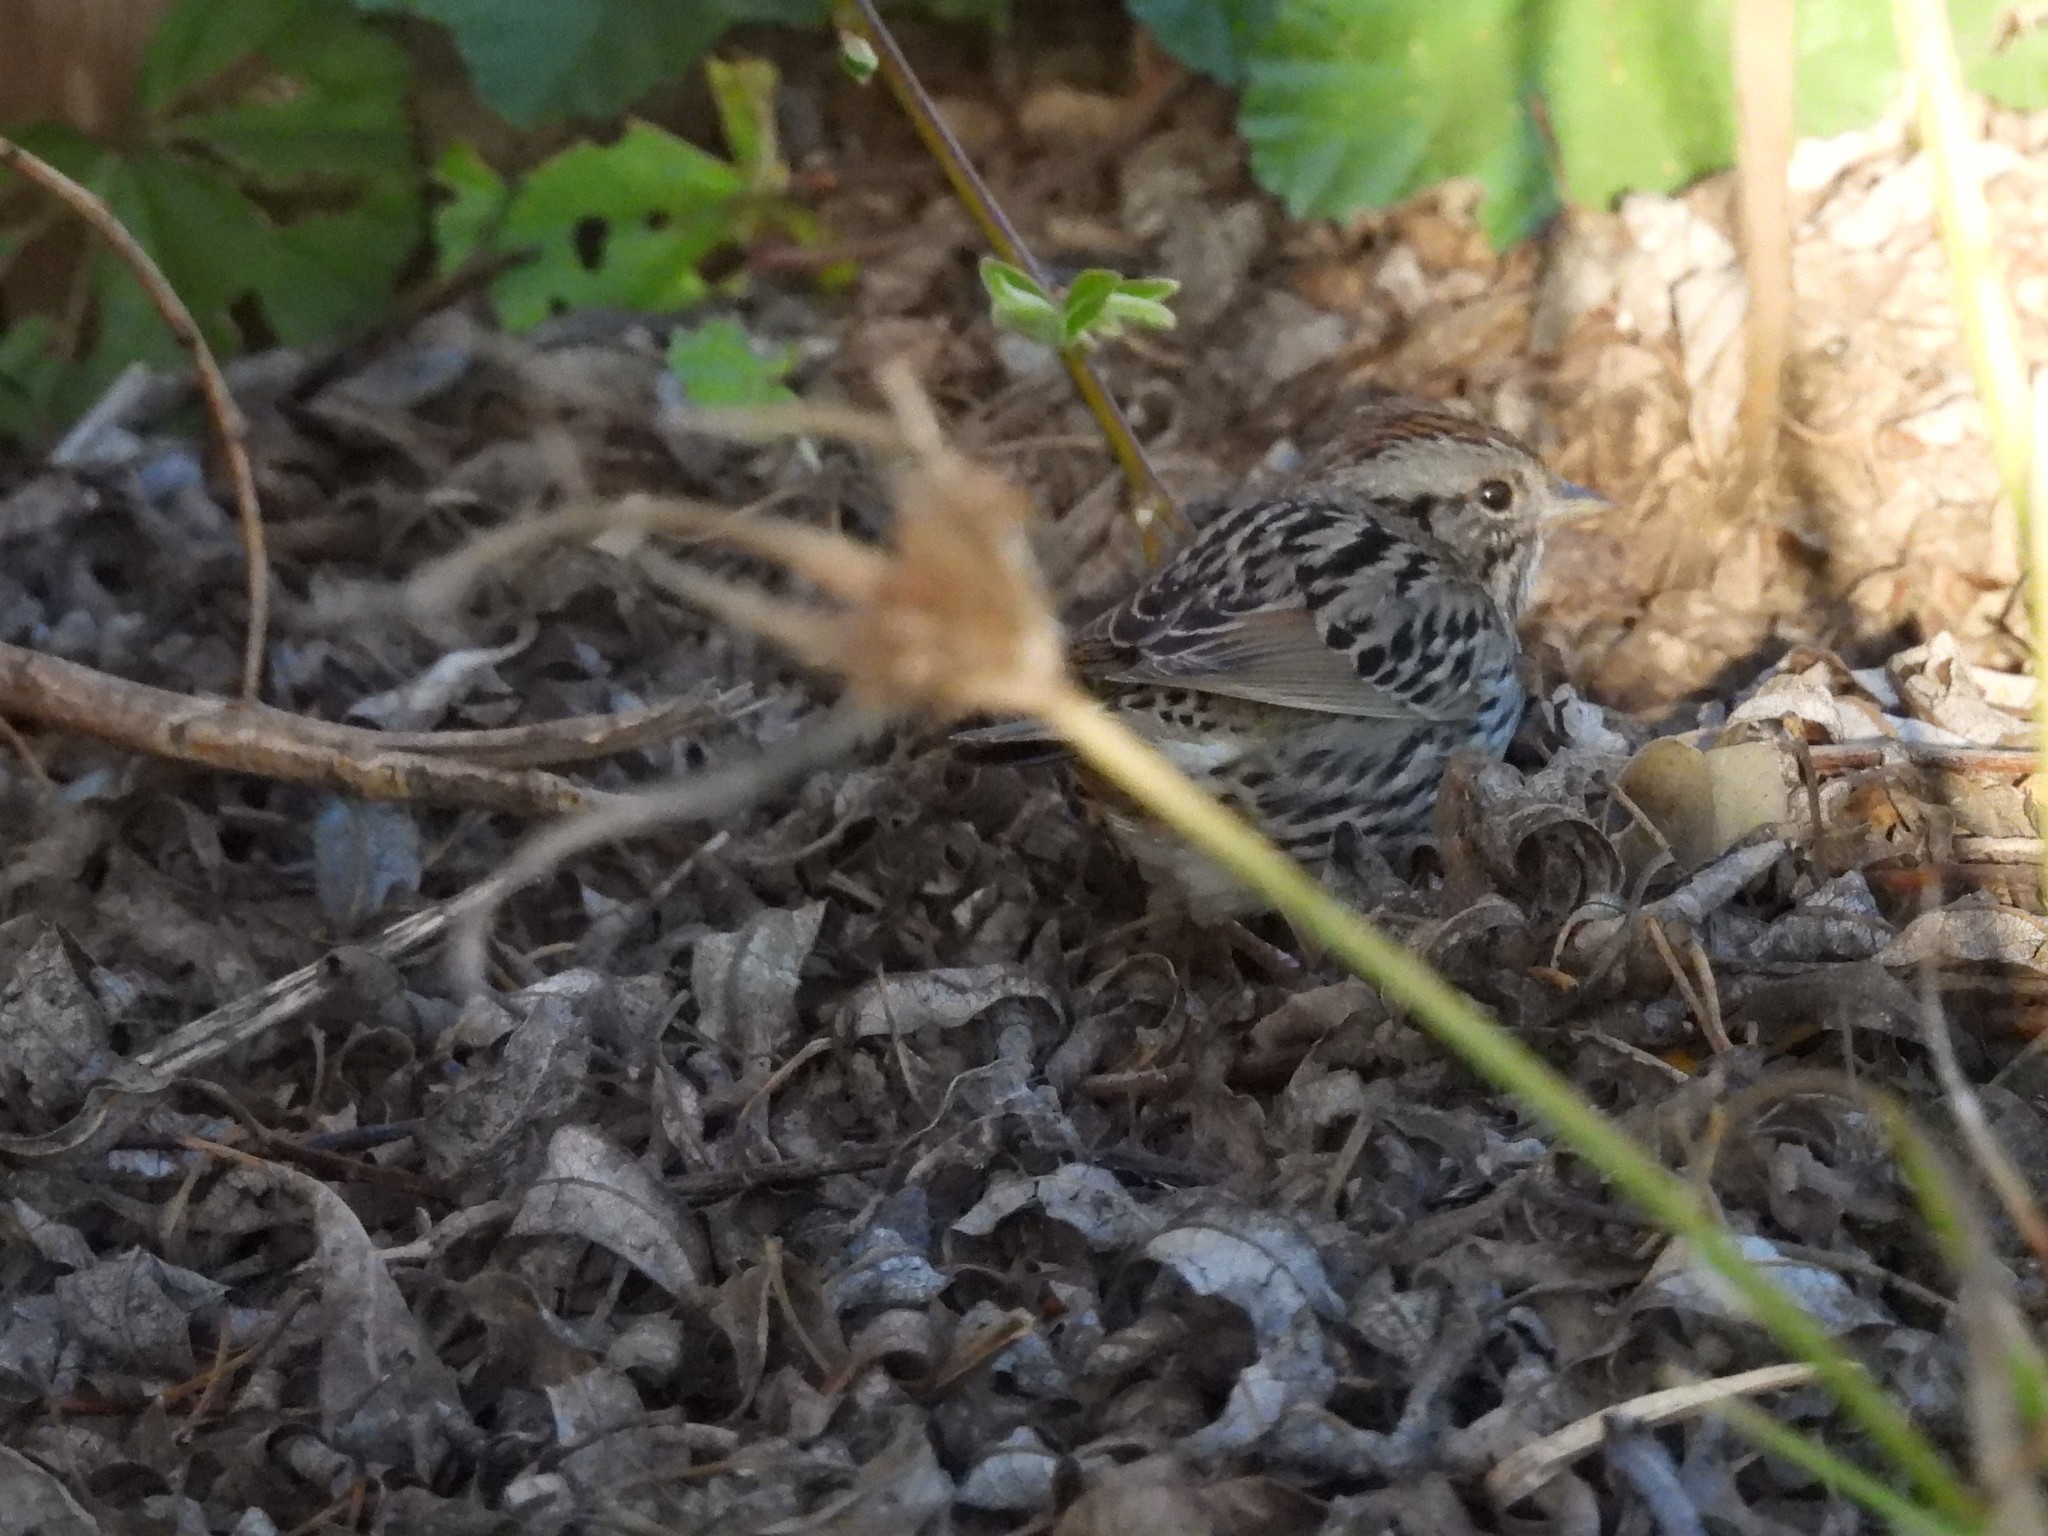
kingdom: Animalia
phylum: Chordata
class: Aves
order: Passeriformes
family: Passerellidae
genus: Melospiza
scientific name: Melospiza lincolnii
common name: Lincoln's sparrow
